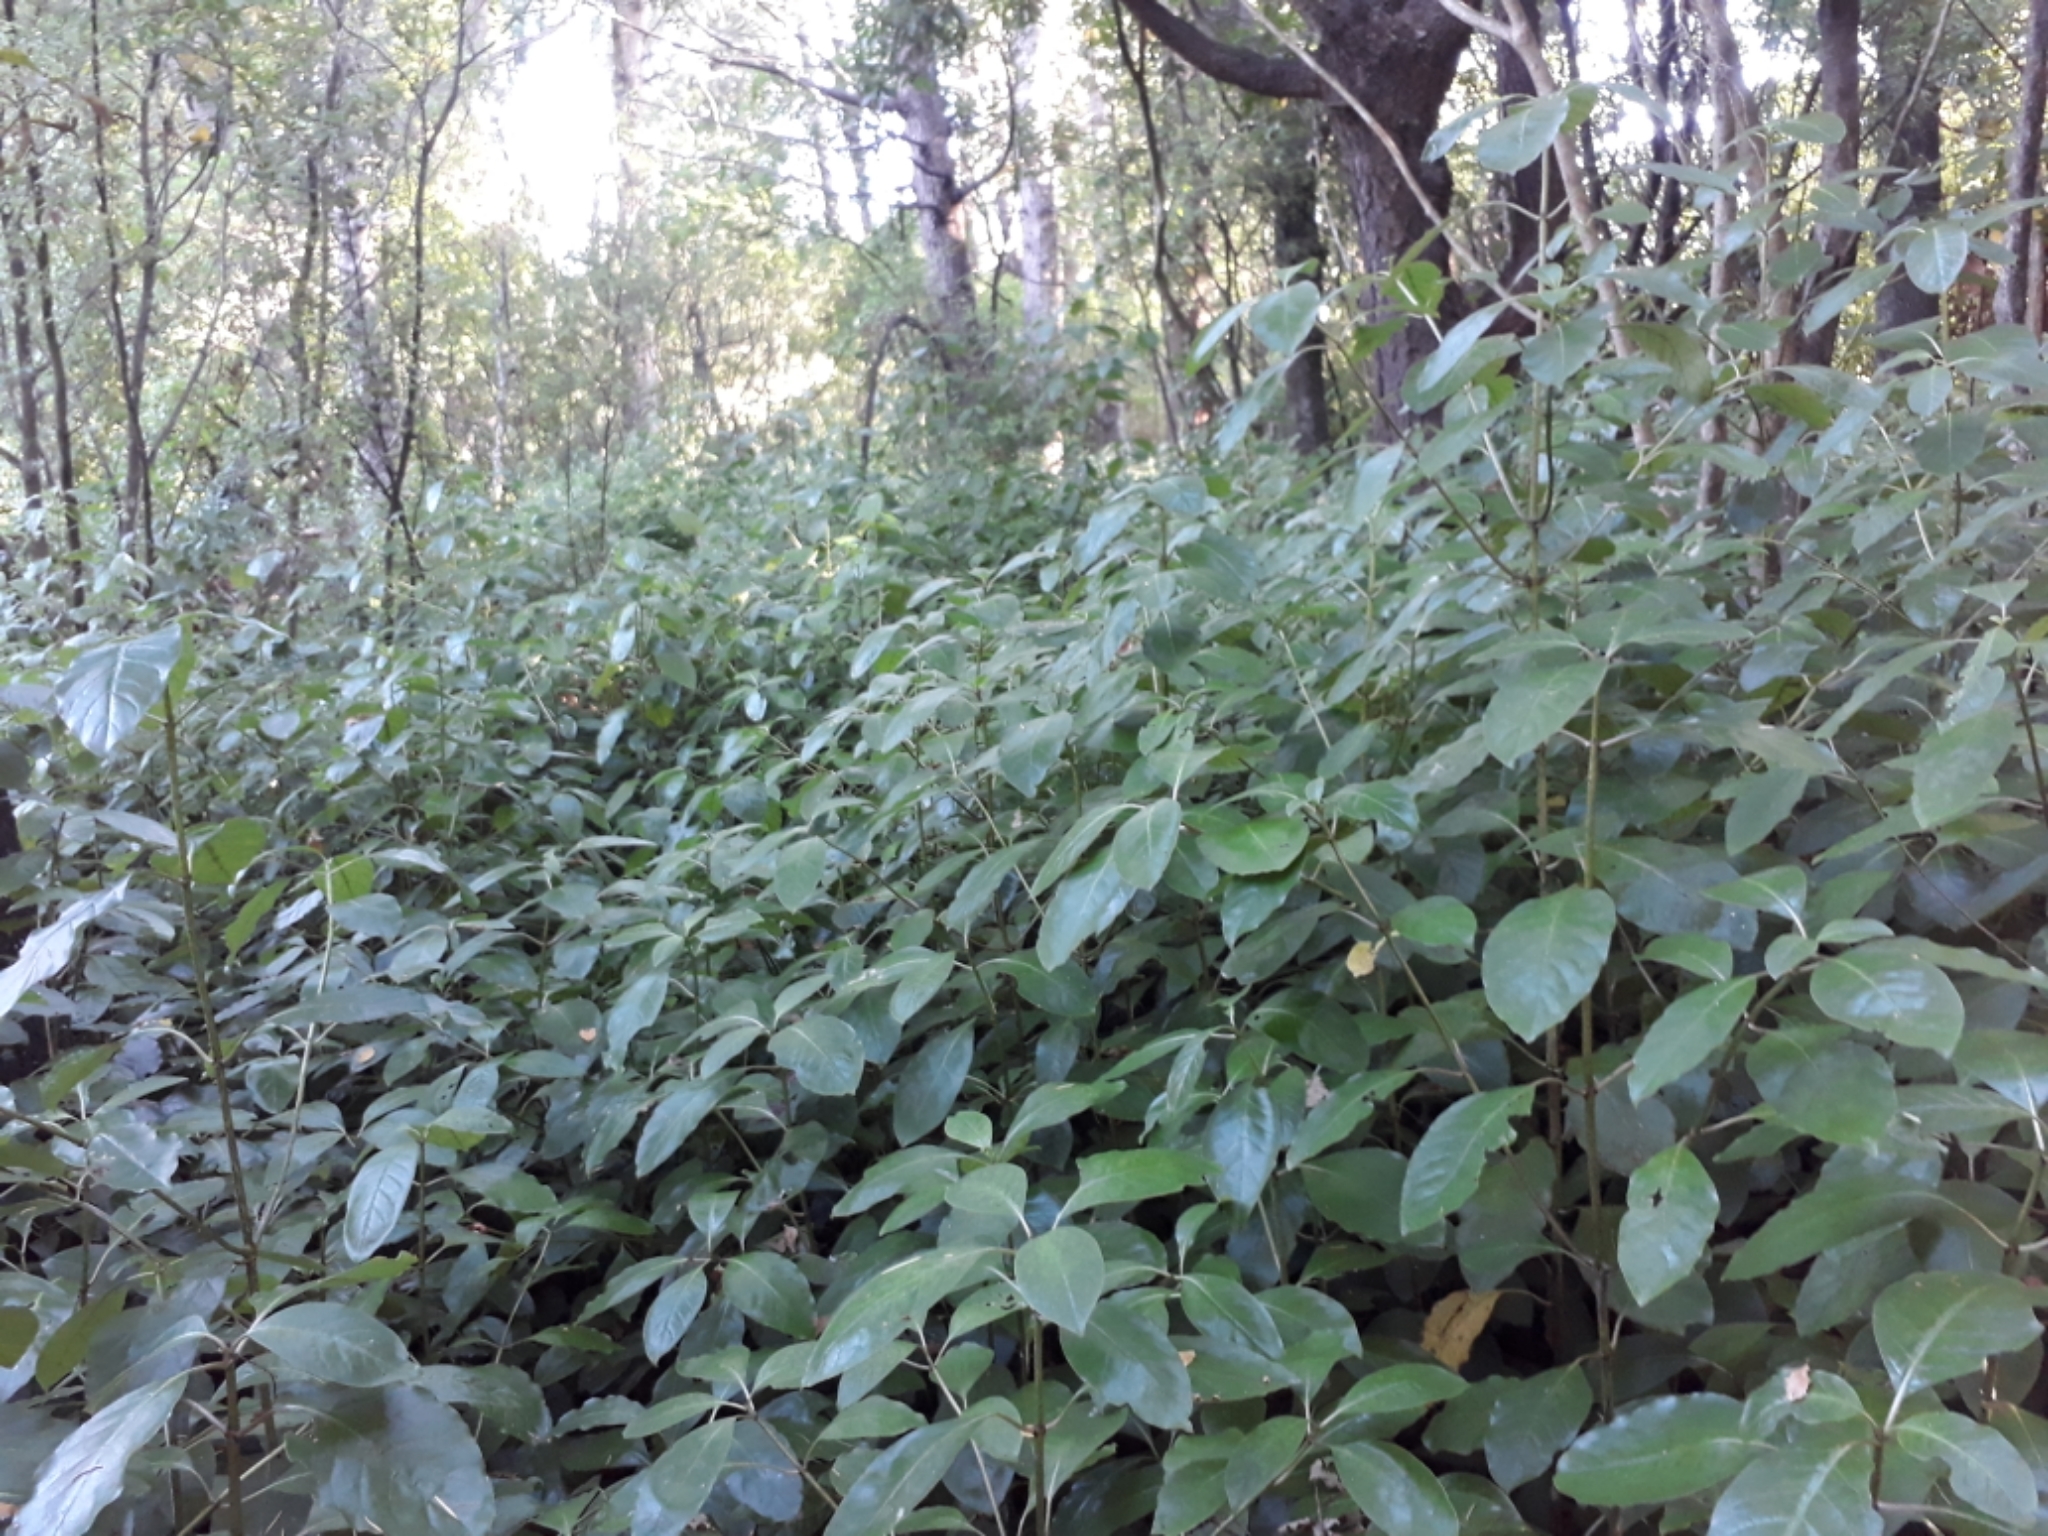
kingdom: Plantae
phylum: Tracheophyta
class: Magnoliopsida
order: Gentianales
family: Rubiaceae
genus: Coprosma
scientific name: Coprosma autumnalis
